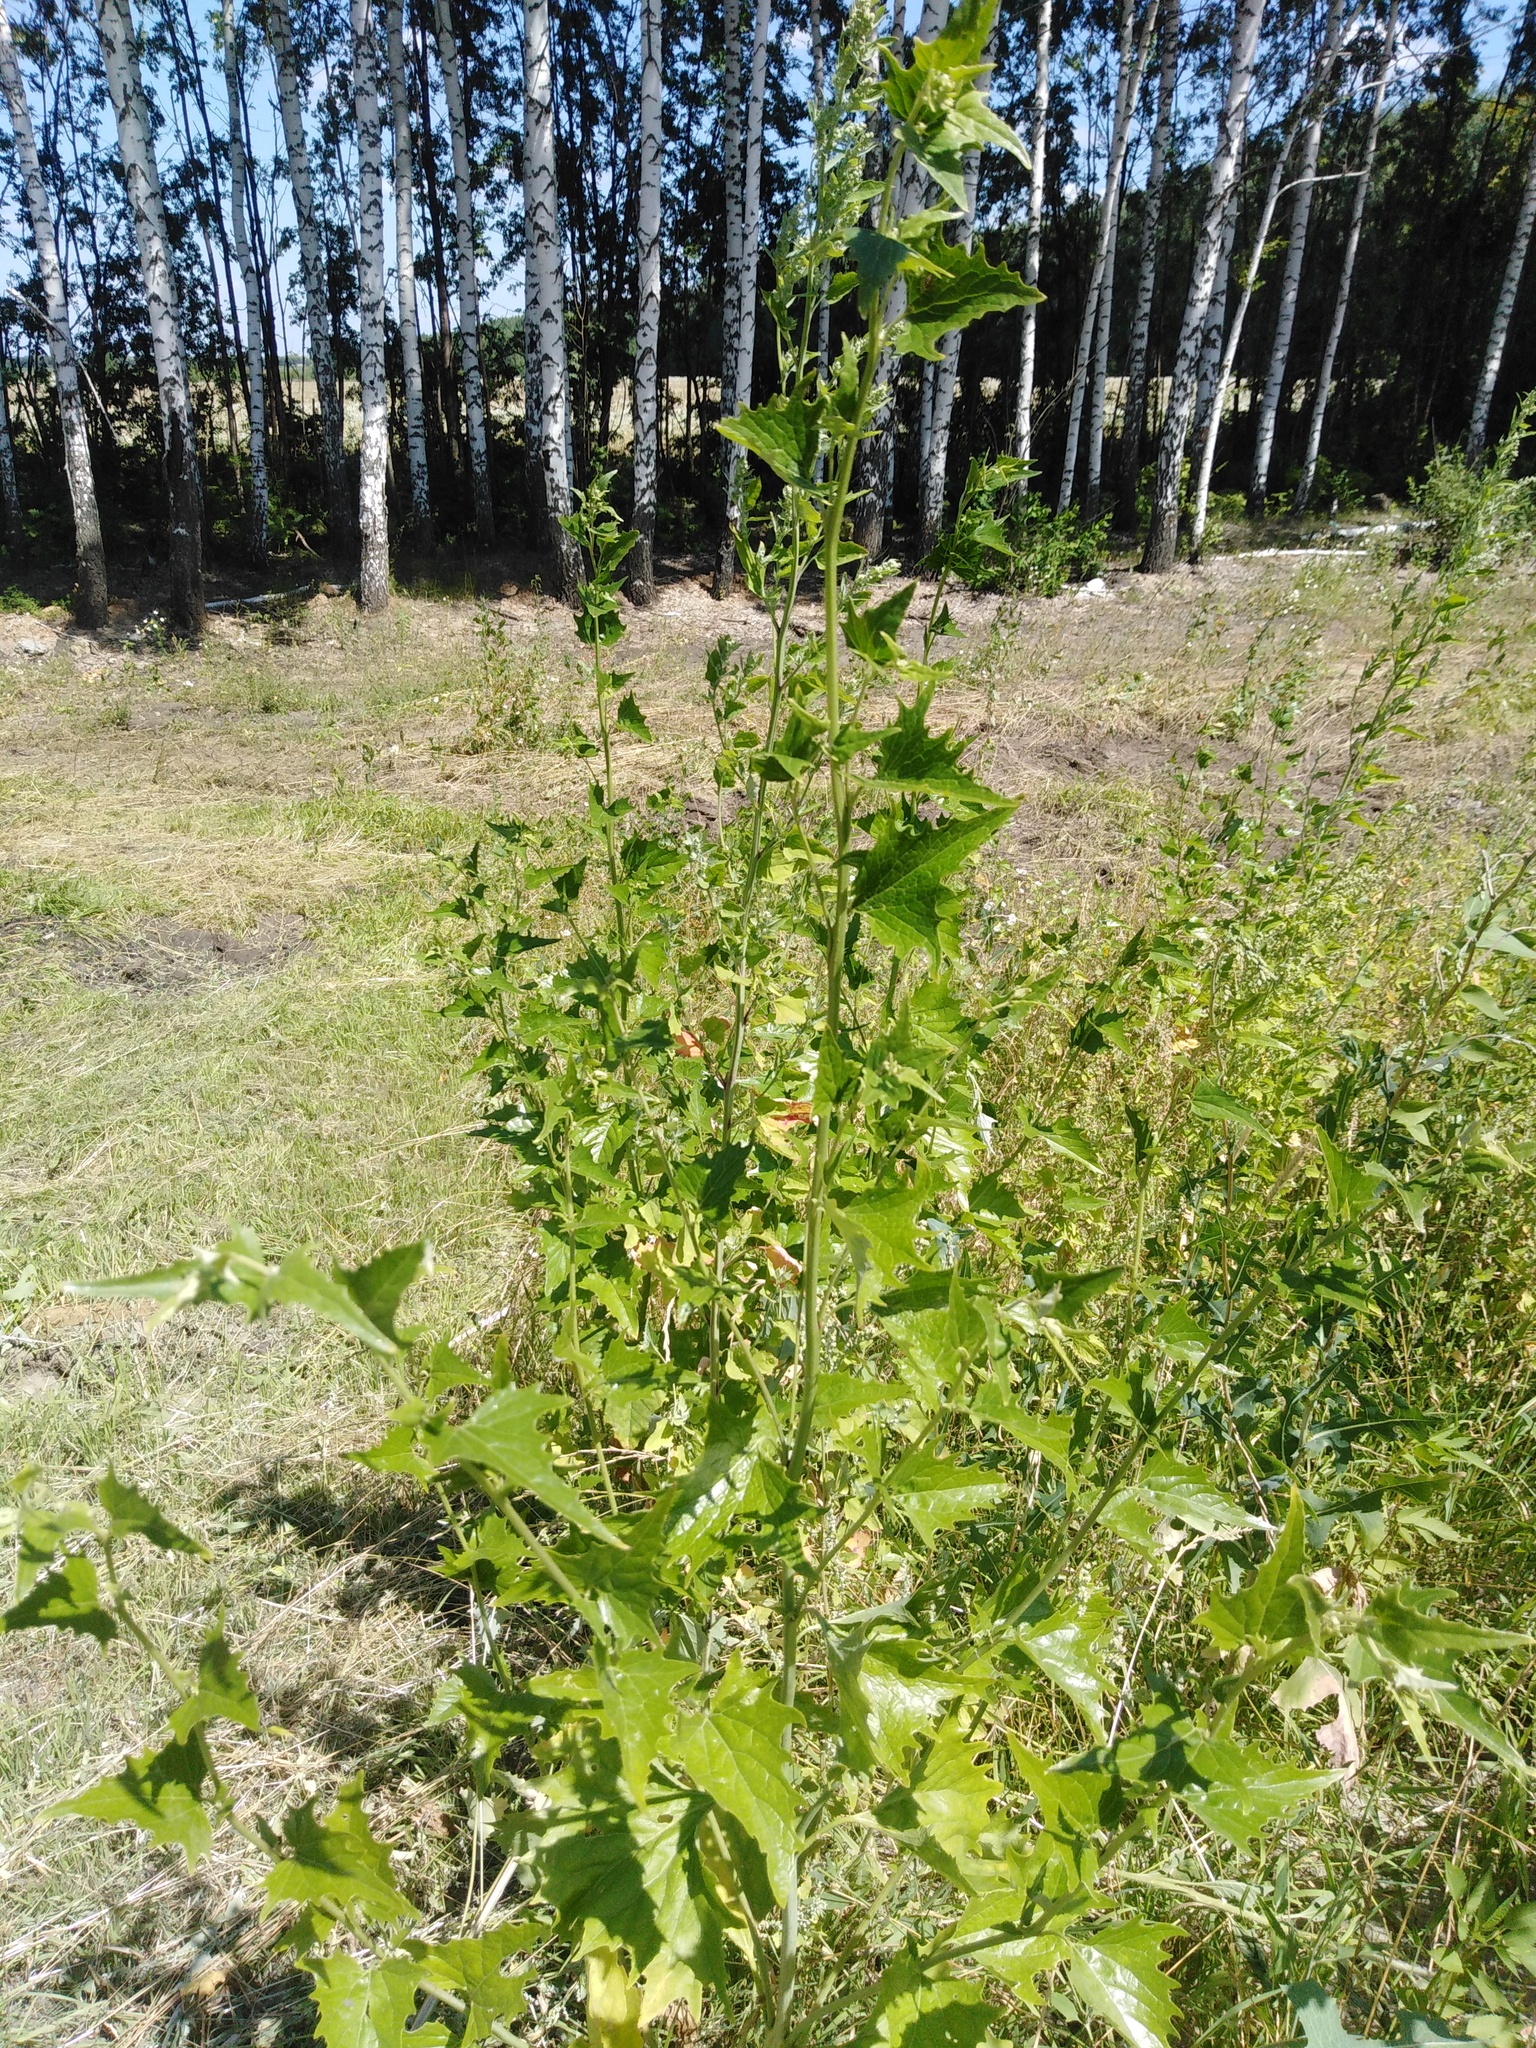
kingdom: Plantae
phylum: Tracheophyta
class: Magnoliopsida
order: Caryophyllales
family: Amaranthaceae
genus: Atriplex
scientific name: Atriplex sagittata
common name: Purple orache
